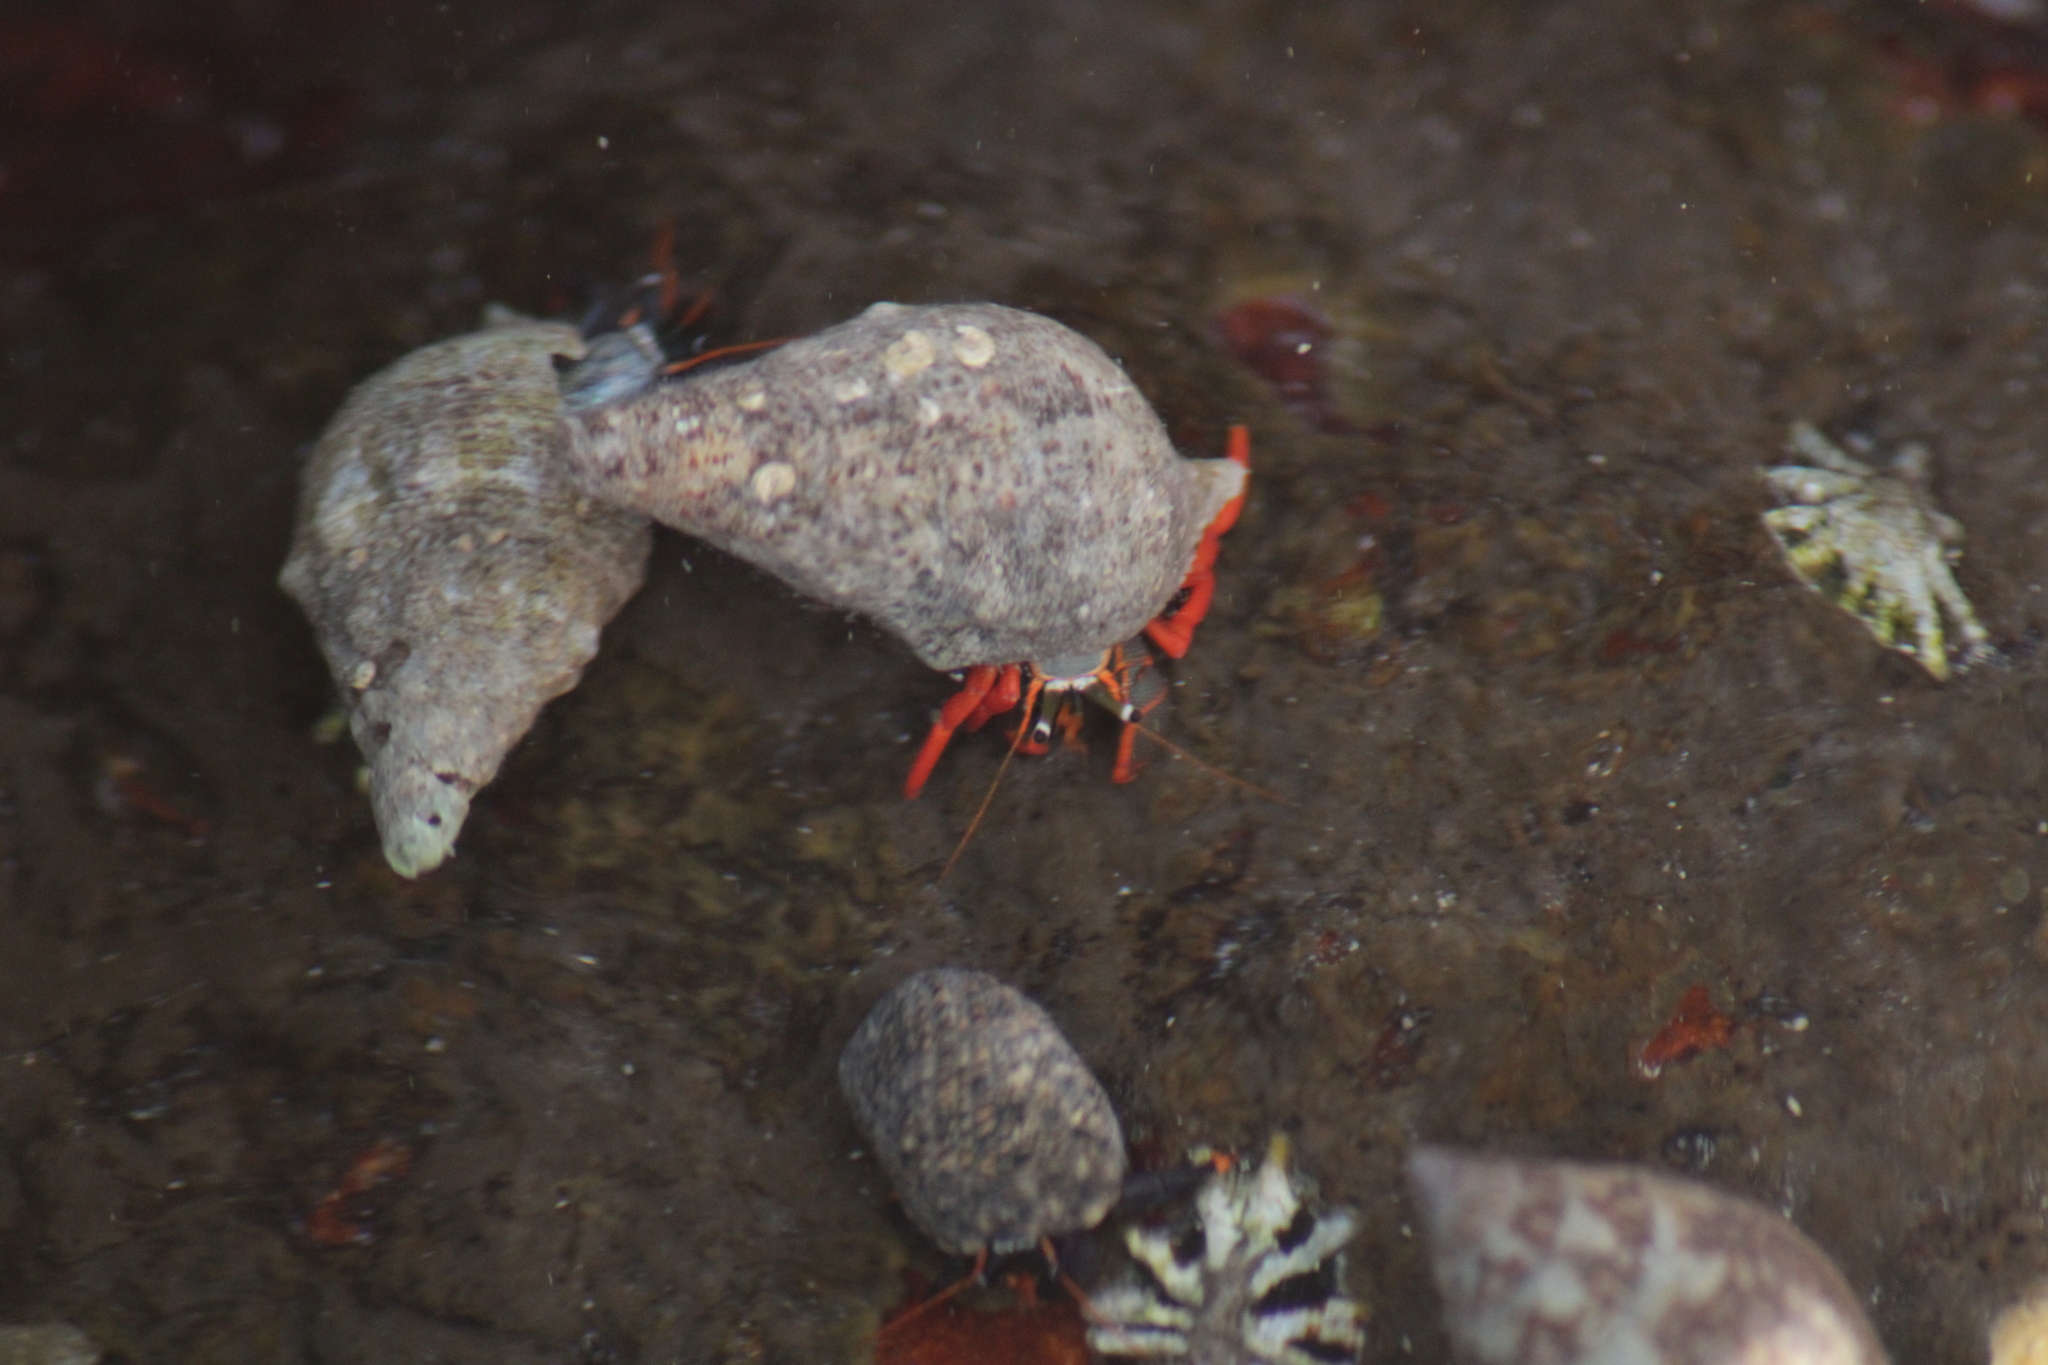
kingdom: Animalia
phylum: Arthropoda
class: Malacostraca
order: Decapoda
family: Diogenidae
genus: Calcinus
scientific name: Calcinus californiensis
